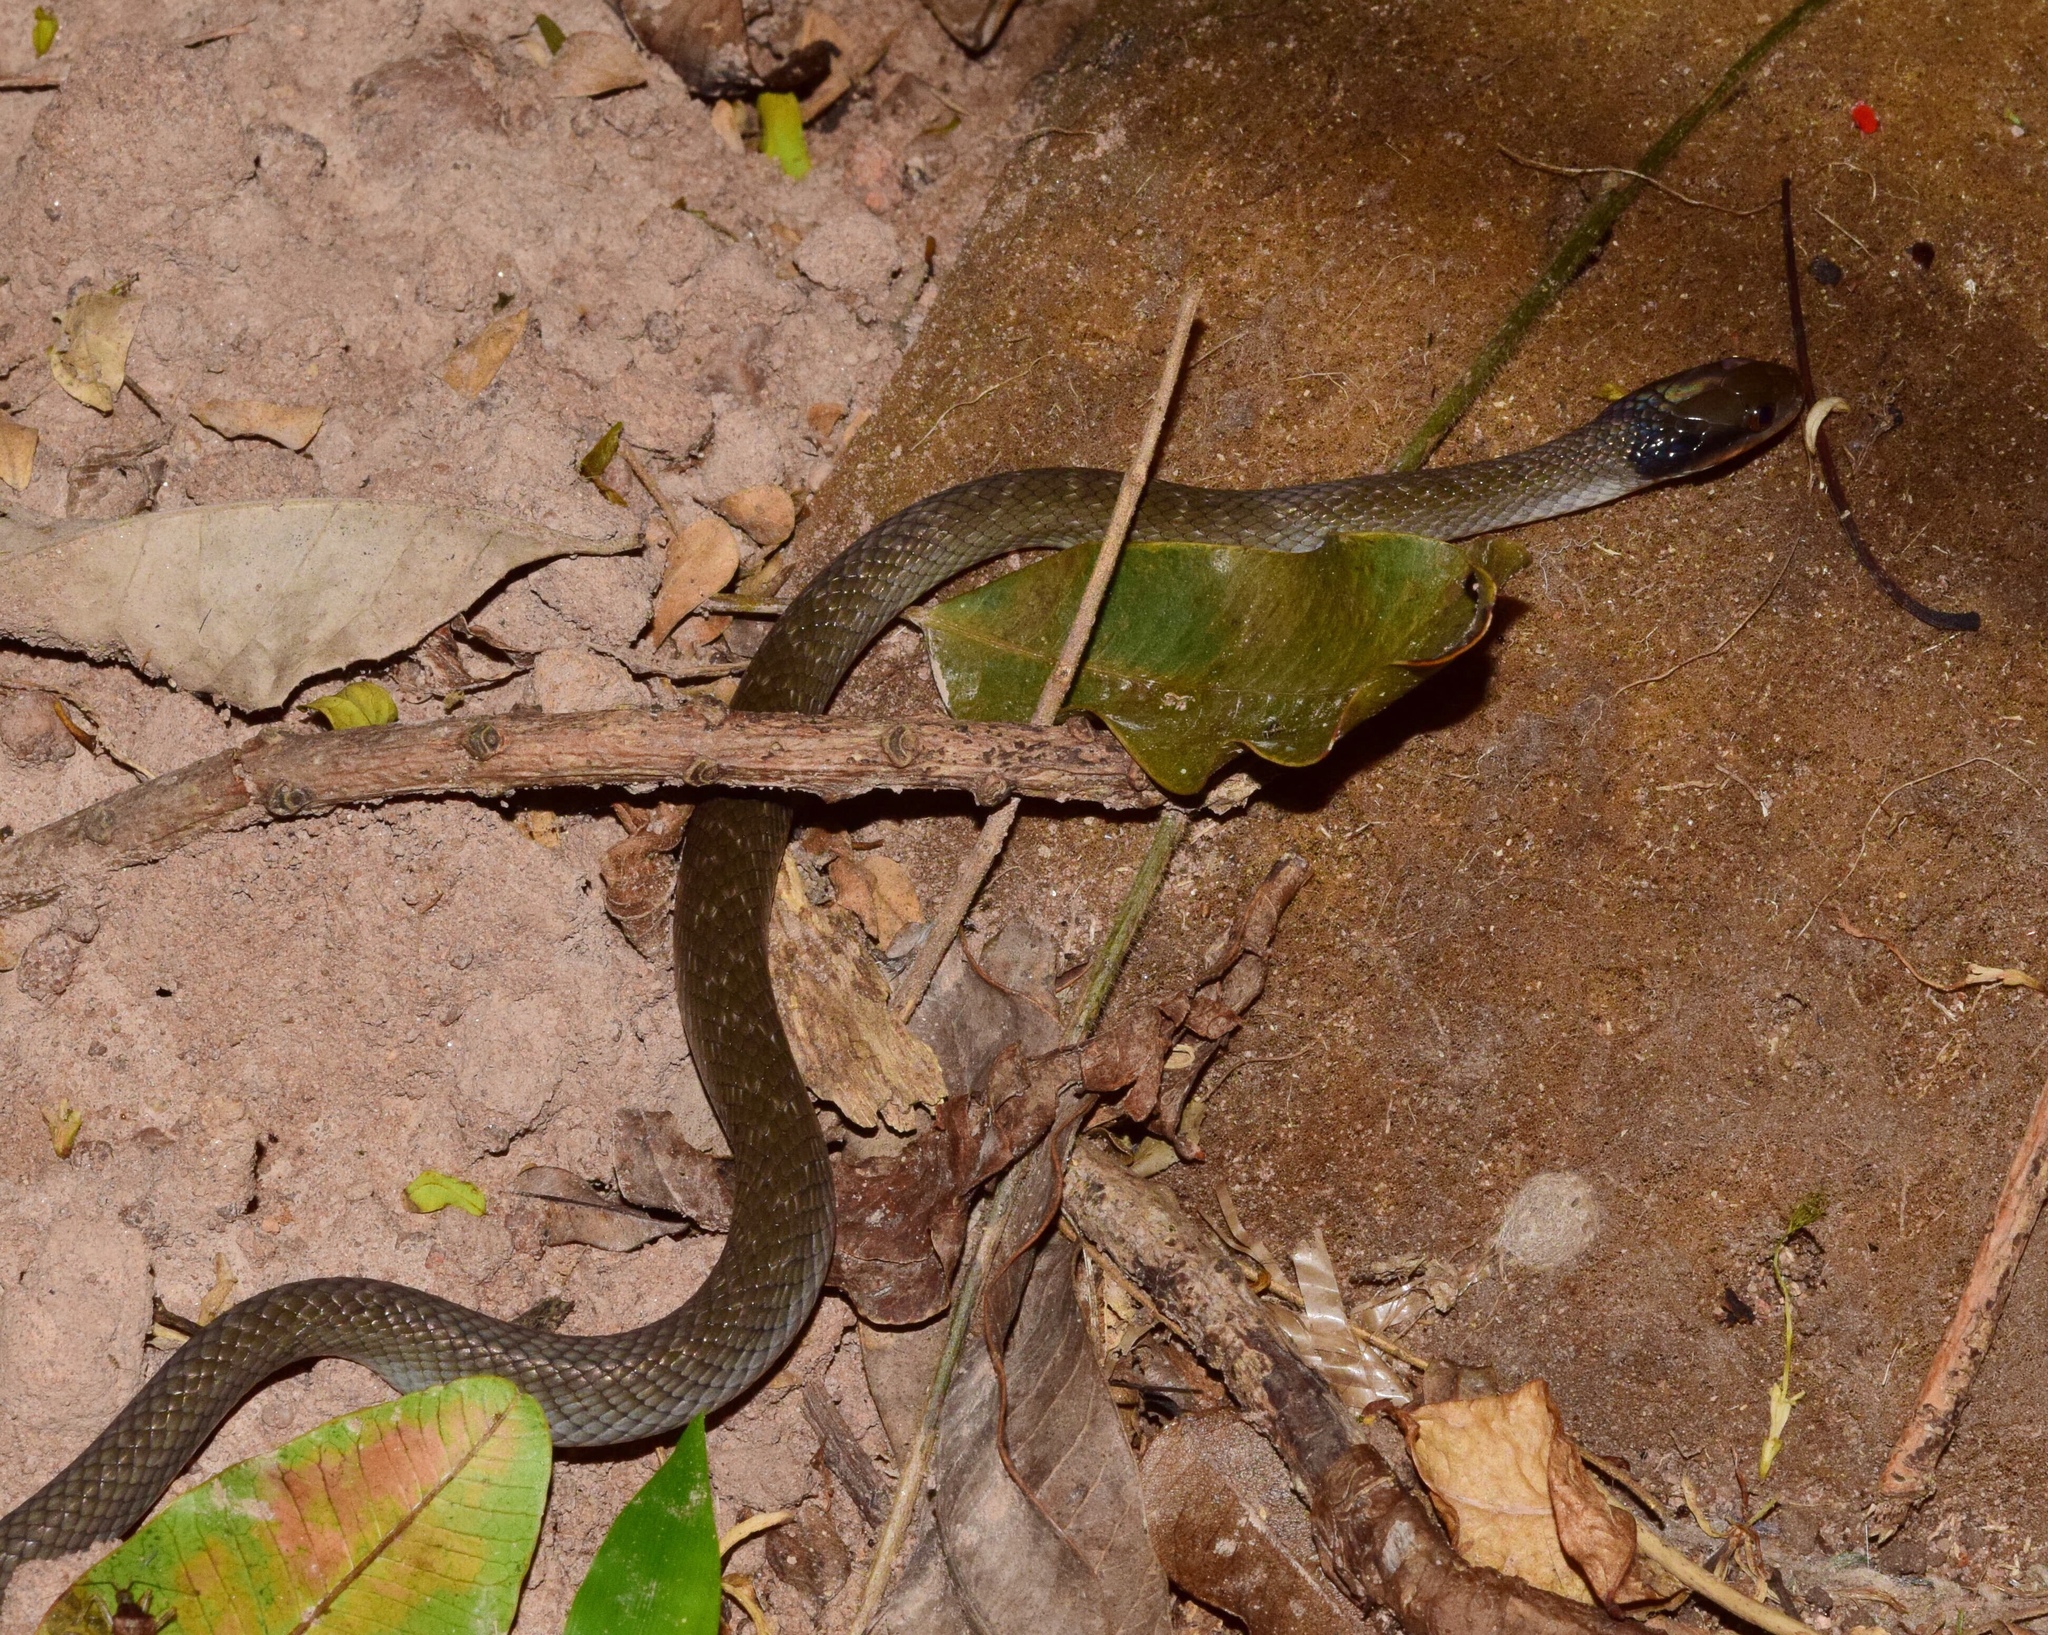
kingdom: Animalia
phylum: Chordata
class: Squamata
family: Colubridae
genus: Crotaphopeltis
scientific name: Crotaphopeltis hotamboeia
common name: Red-lipped snake
